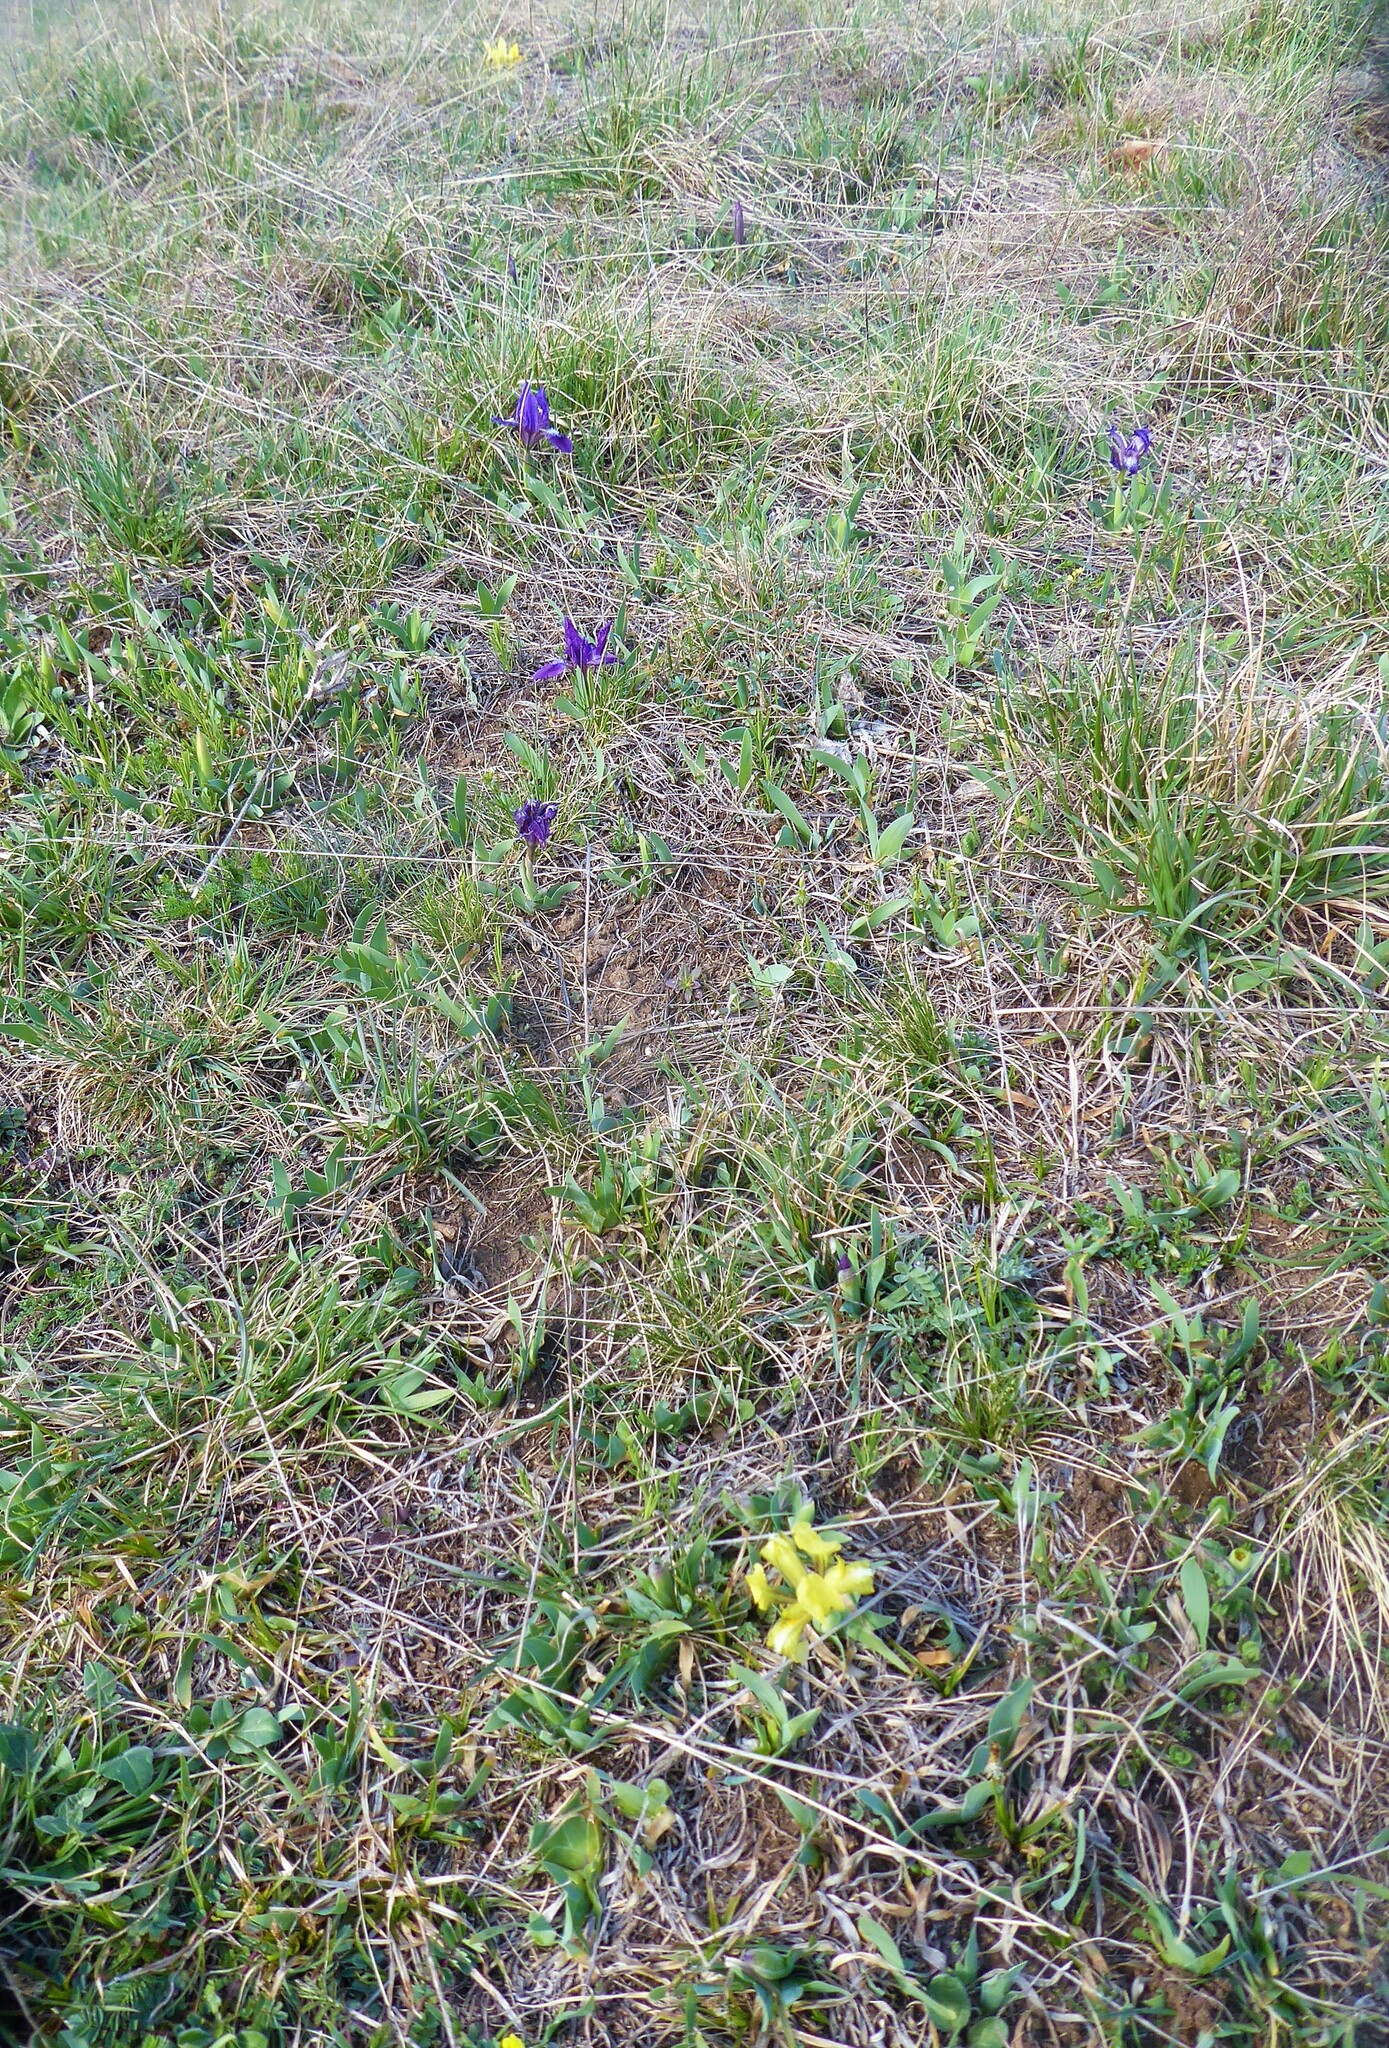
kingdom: Plantae
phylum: Tracheophyta
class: Liliopsida
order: Asparagales
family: Iridaceae
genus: Iris
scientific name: Iris pumila
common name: Dwarf iris
